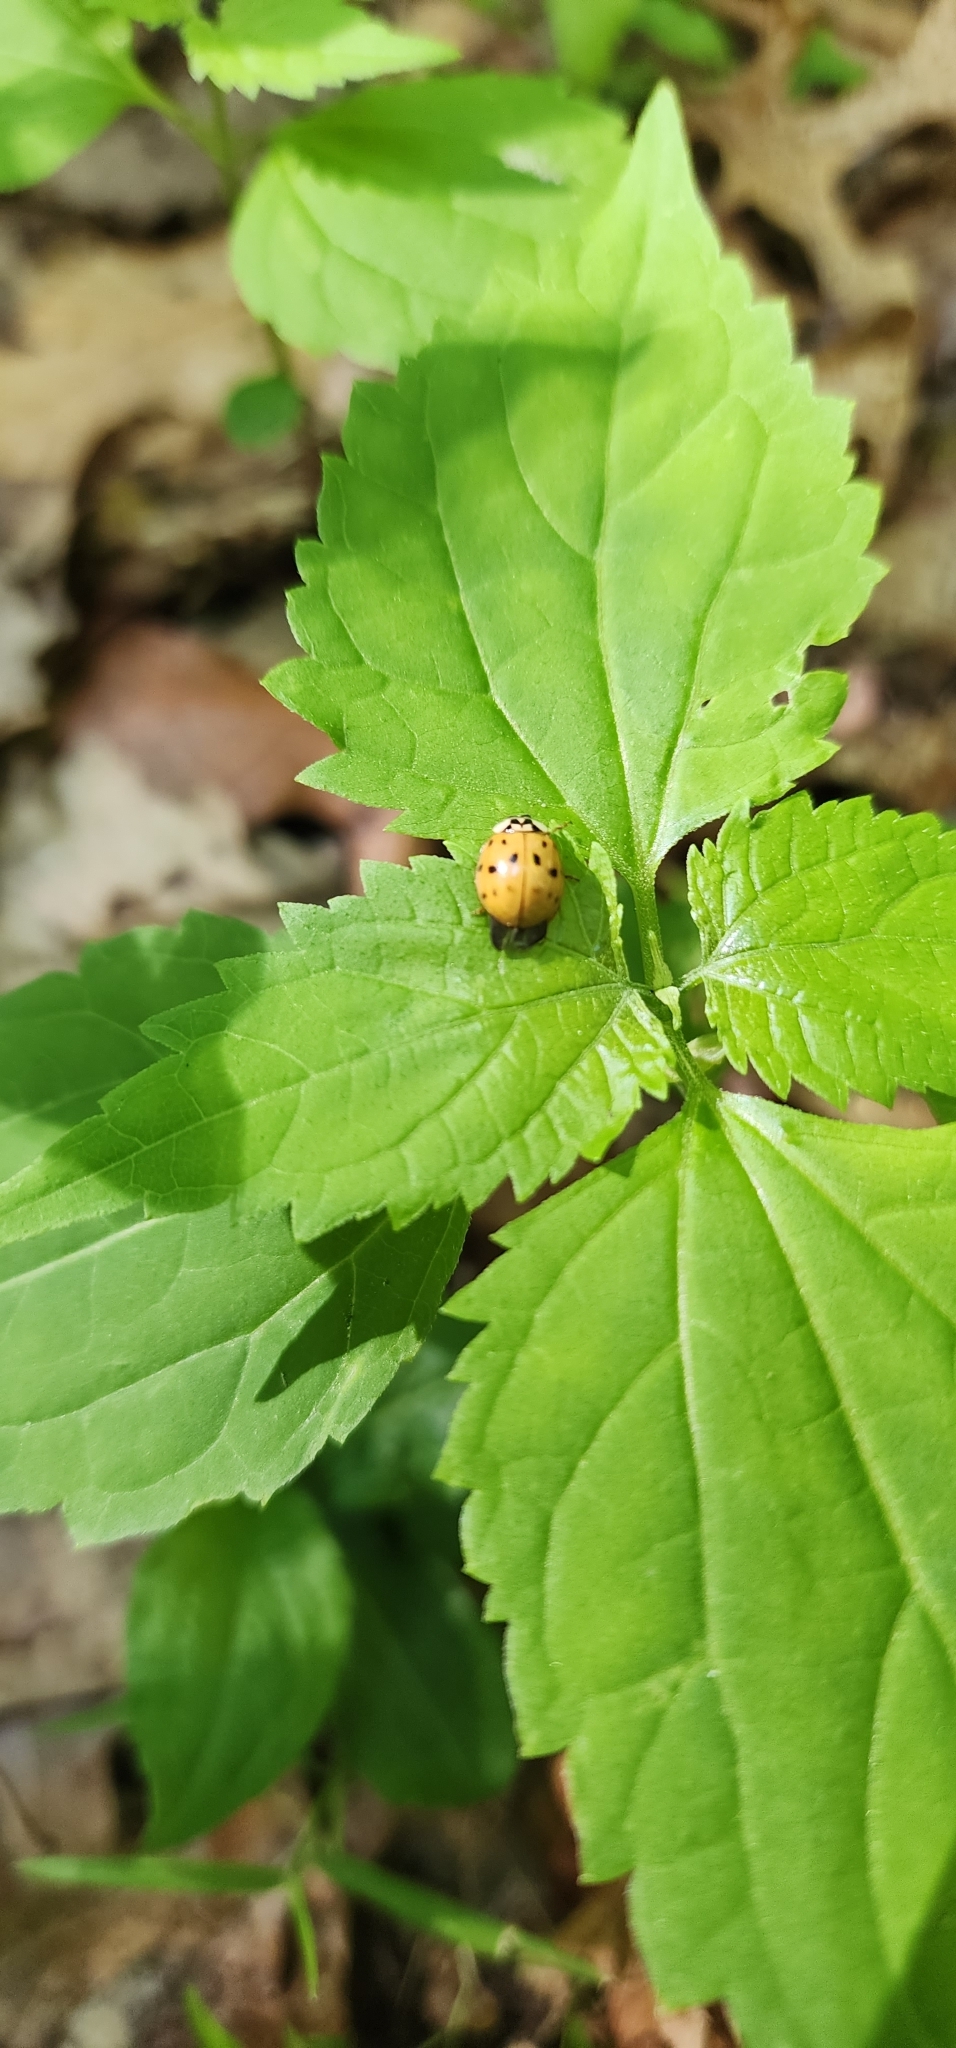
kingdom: Animalia
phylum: Arthropoda
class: Insecta
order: Coleoptera
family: Coccinellidae
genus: Harmonia
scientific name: Harmonia axyridis
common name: Harlequin ladybird
